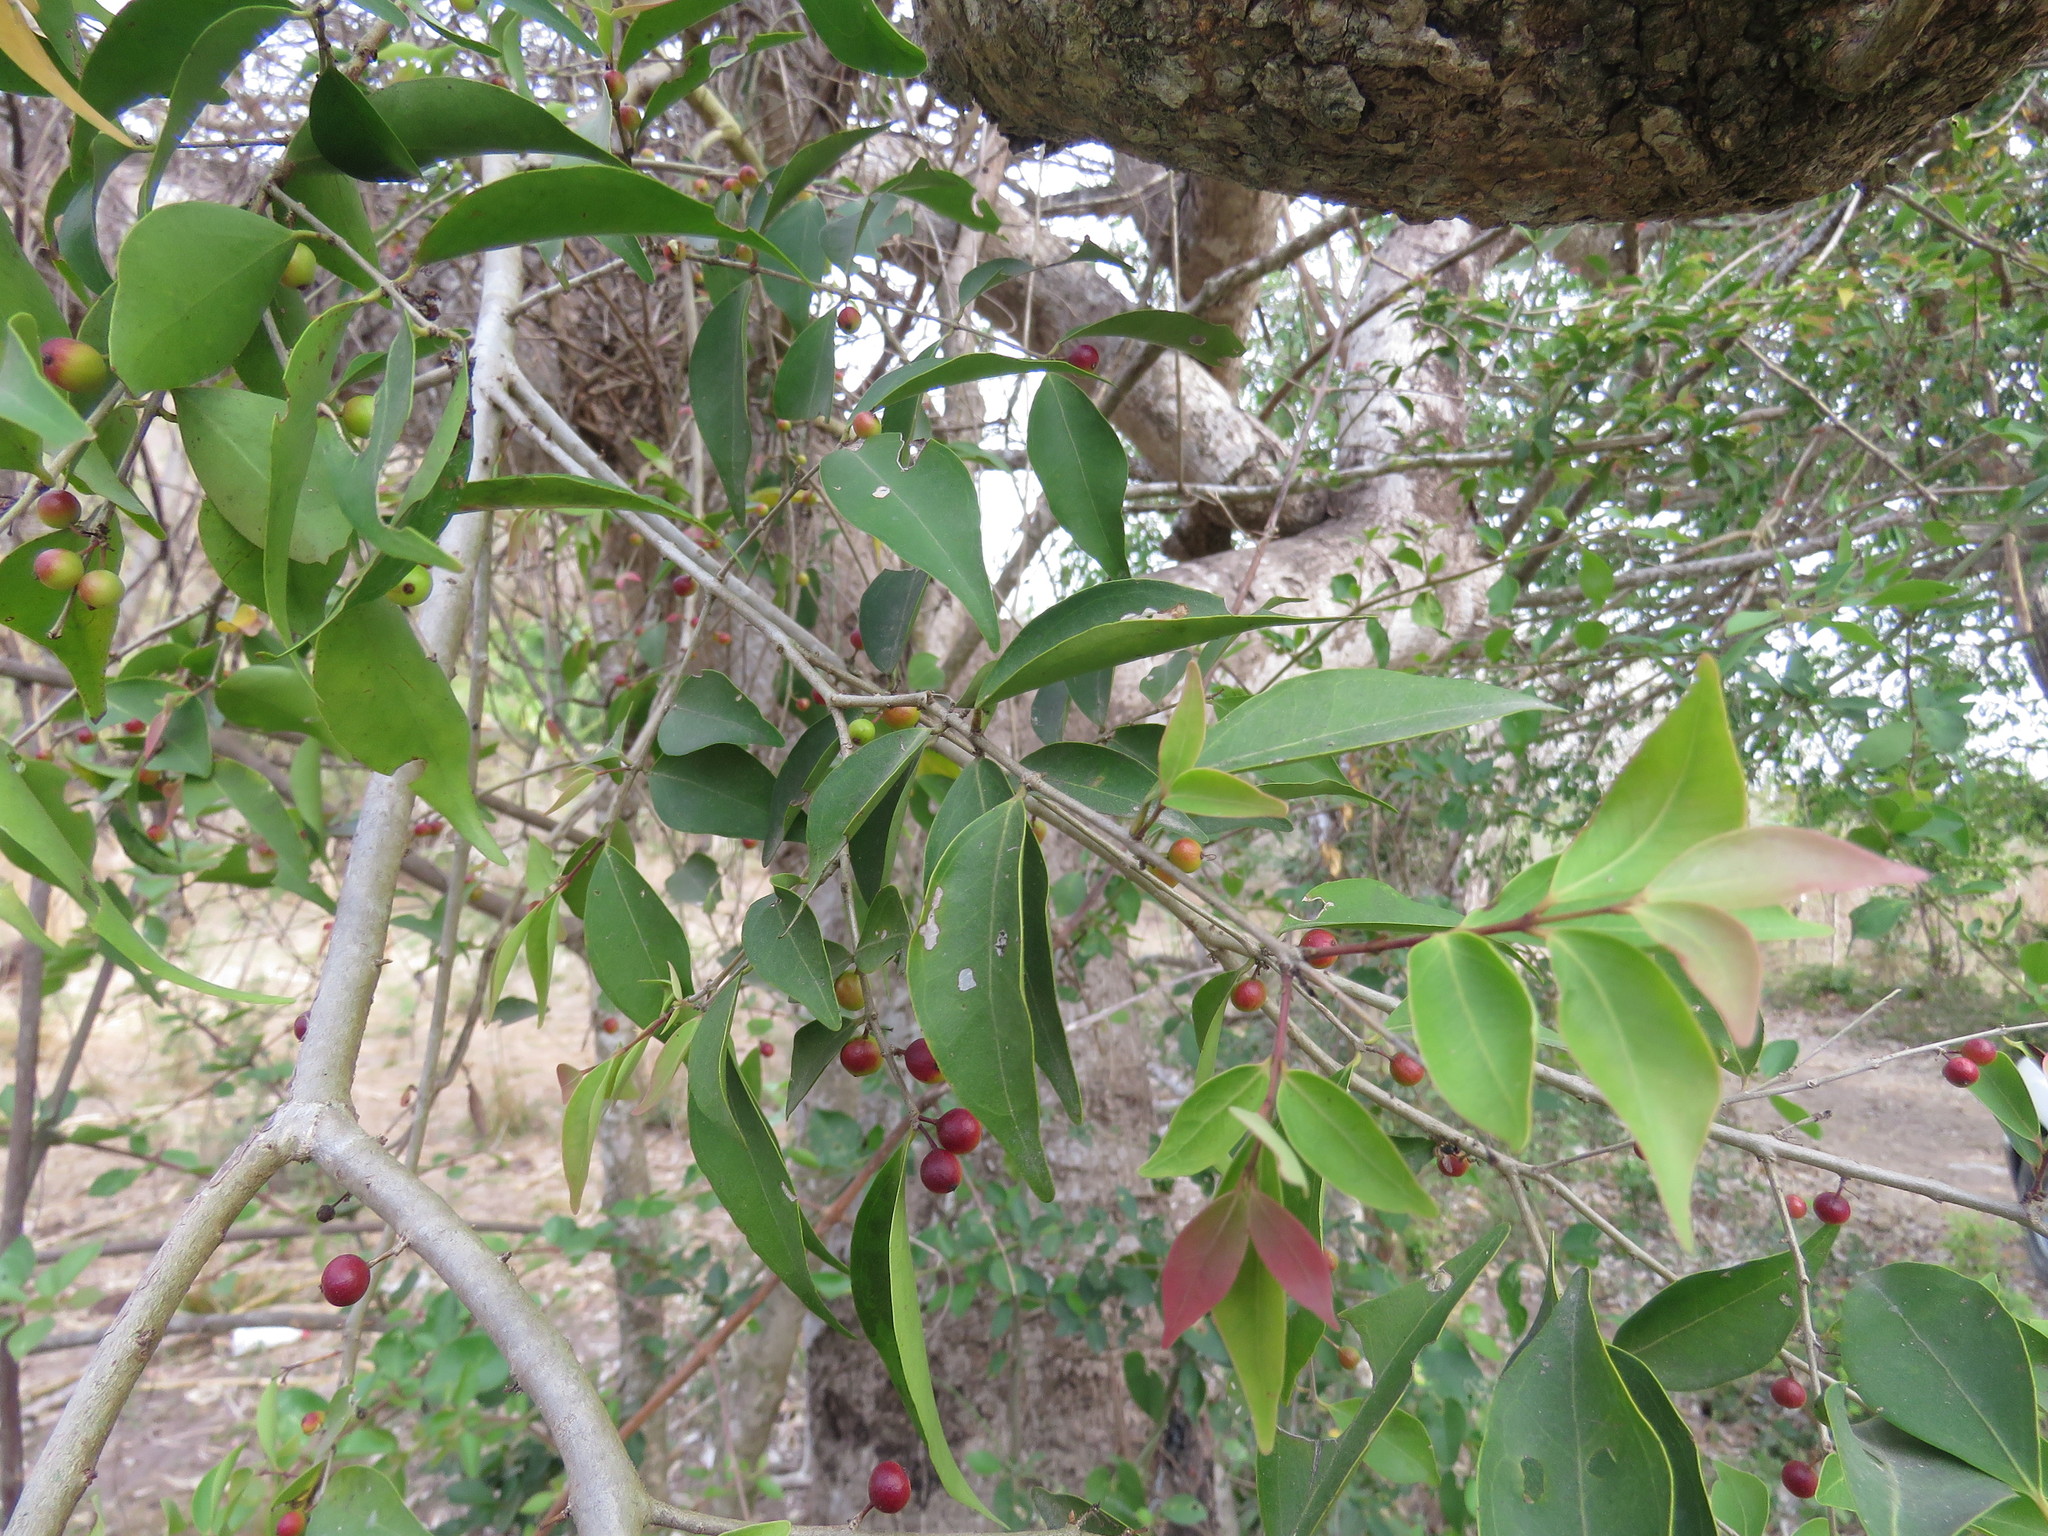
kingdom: Plantae
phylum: Tracheophyta
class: Magnoliopsida
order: Myrtales
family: Myrtaceae
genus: Eugenia
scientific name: Eugenia capuli
